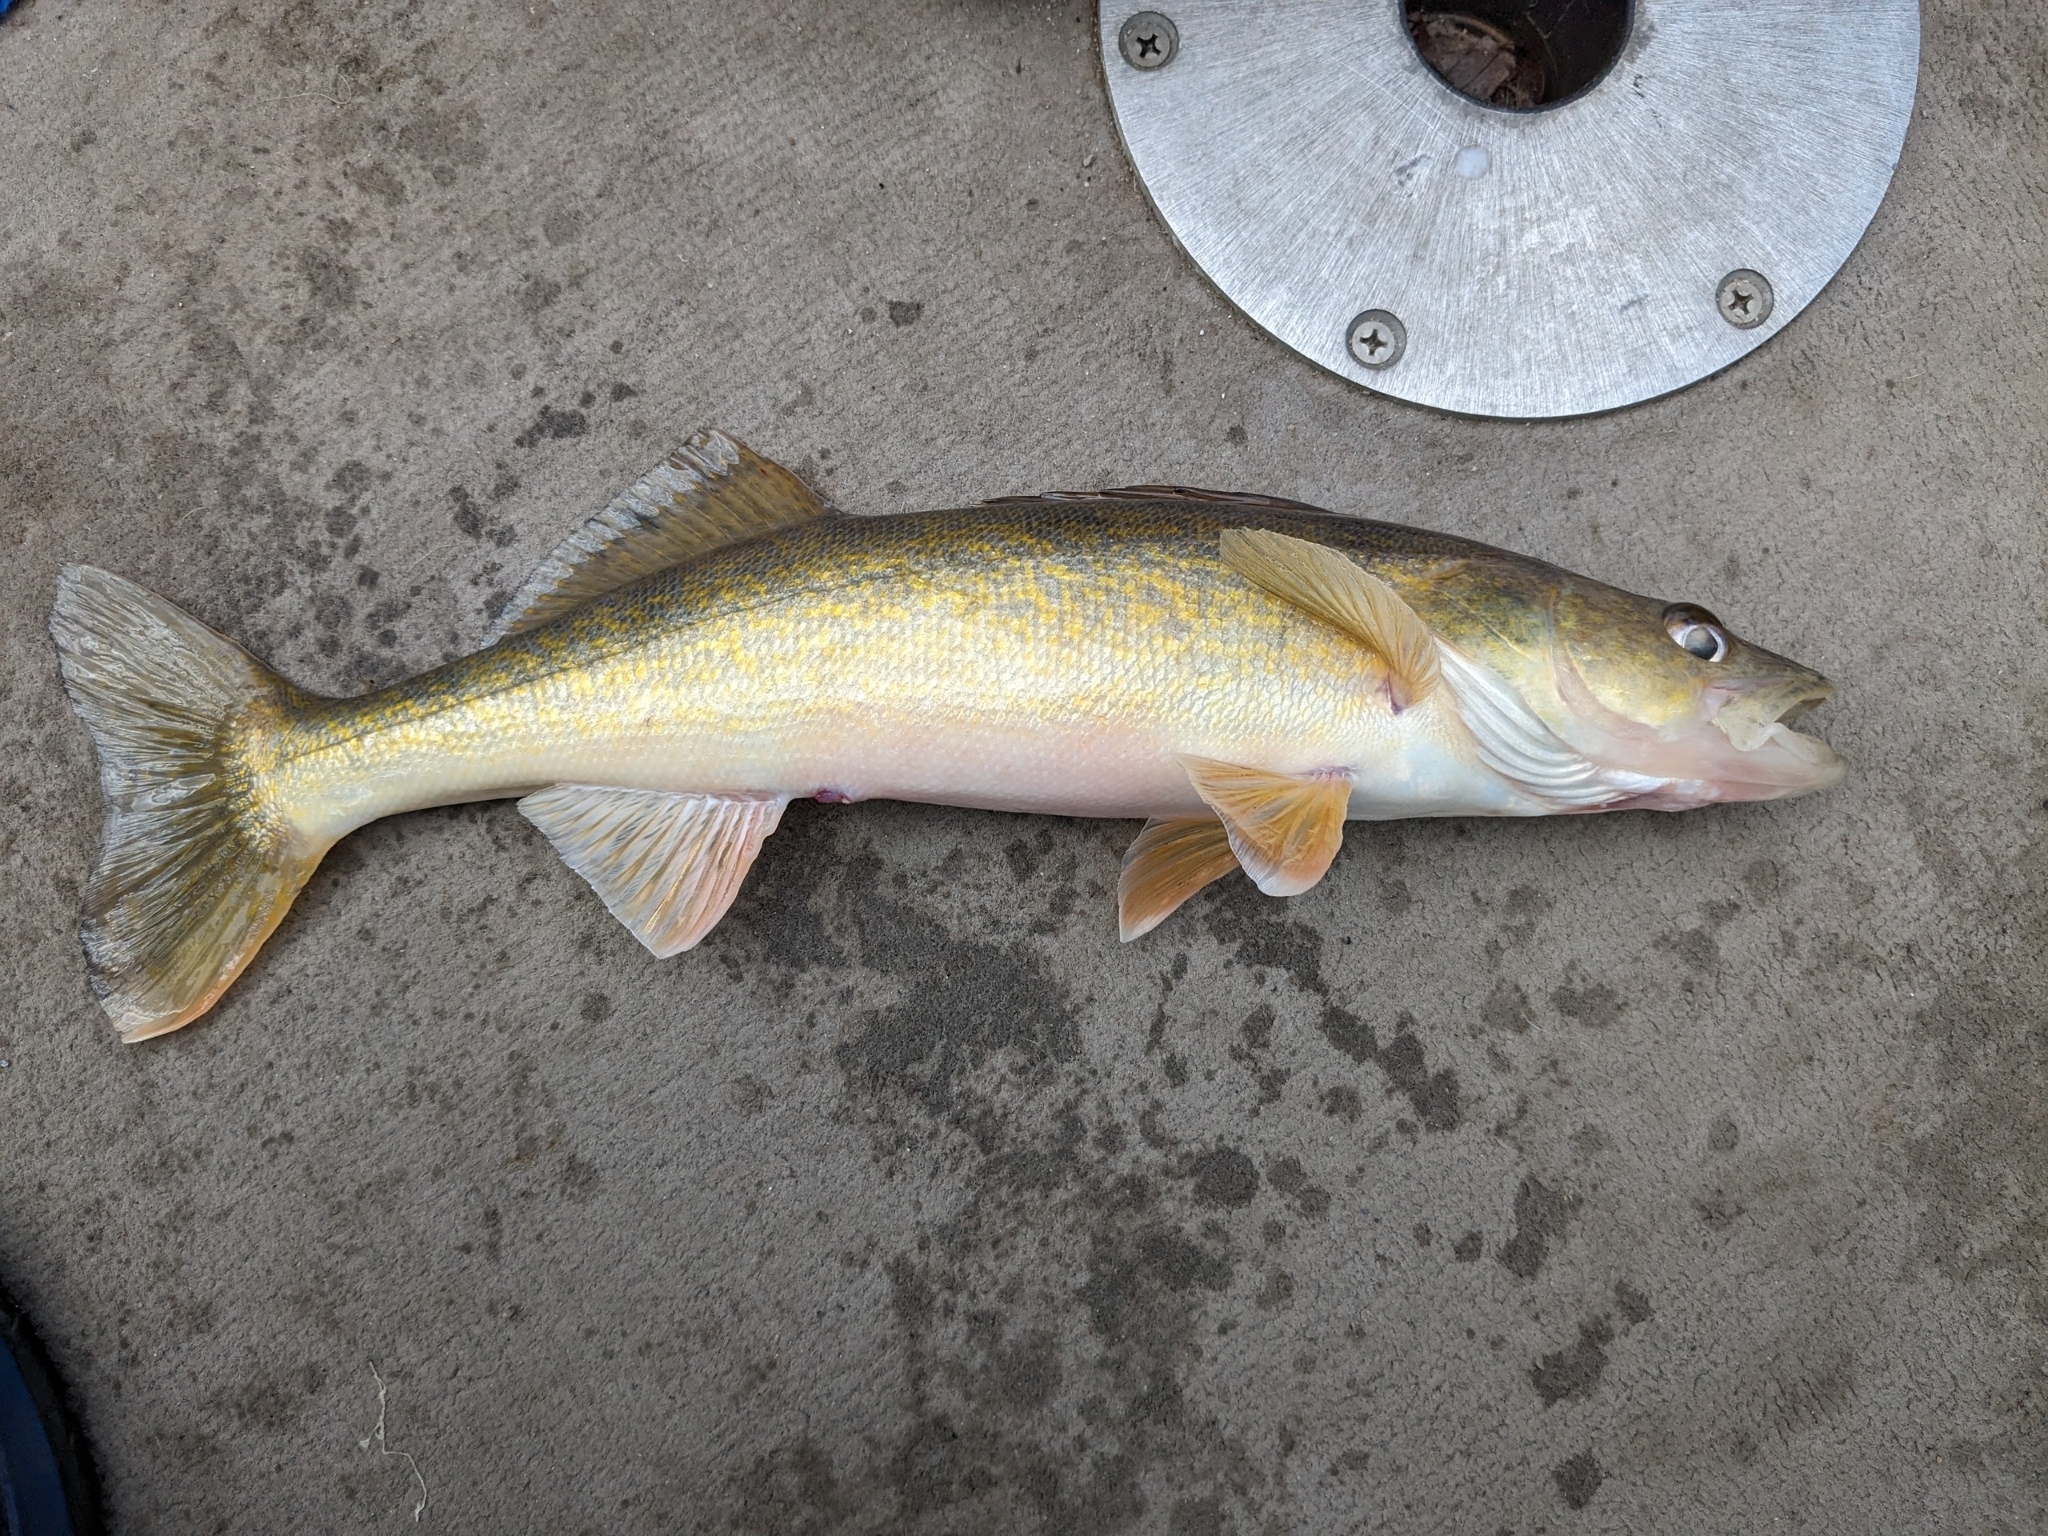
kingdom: Animalia
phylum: Chordata
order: Perciformes
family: Percidae
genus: Sander
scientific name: Sander vitreus
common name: Walleye
